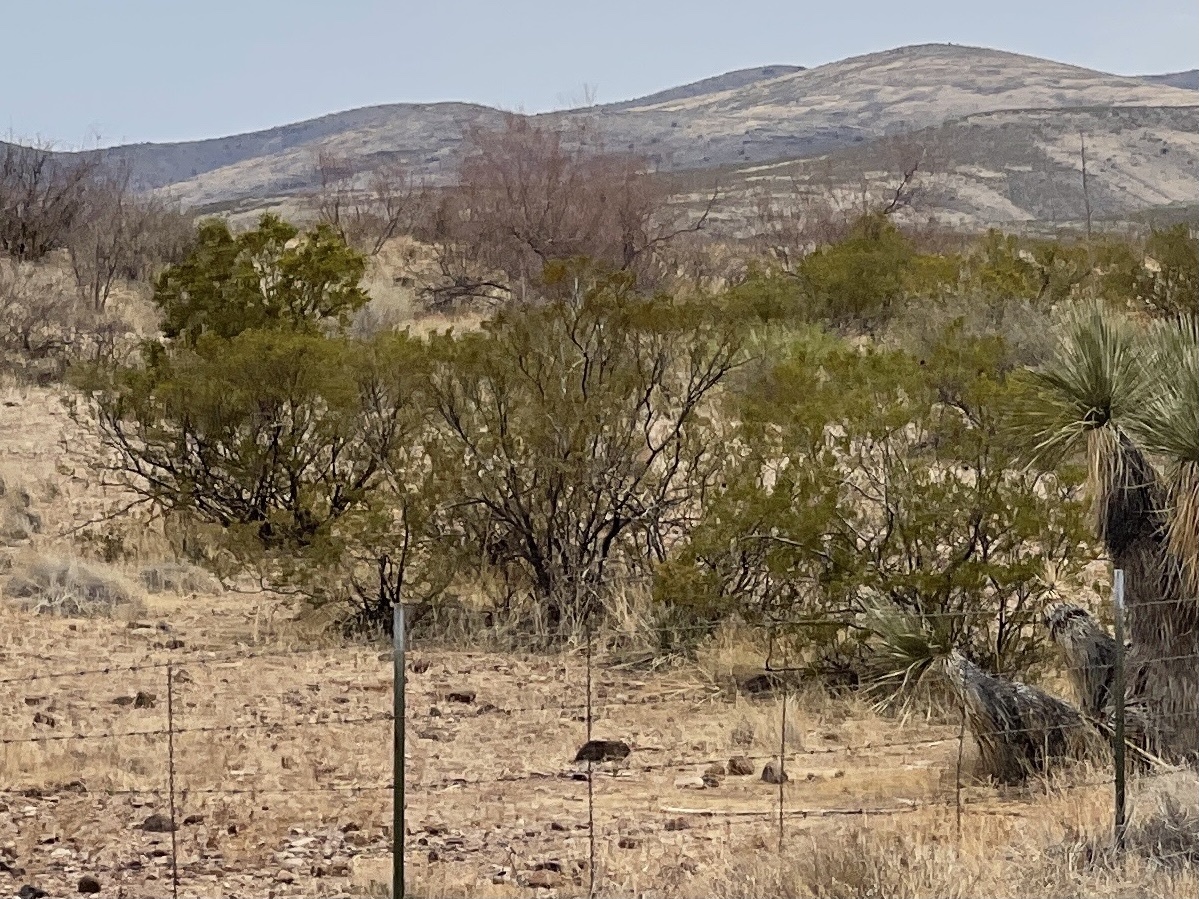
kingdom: Plantae
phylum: Tracheophyta
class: Magnoliopsida
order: Zygophyllales
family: Zygophyllaceae
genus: Larrea
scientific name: Larrea tridentata
